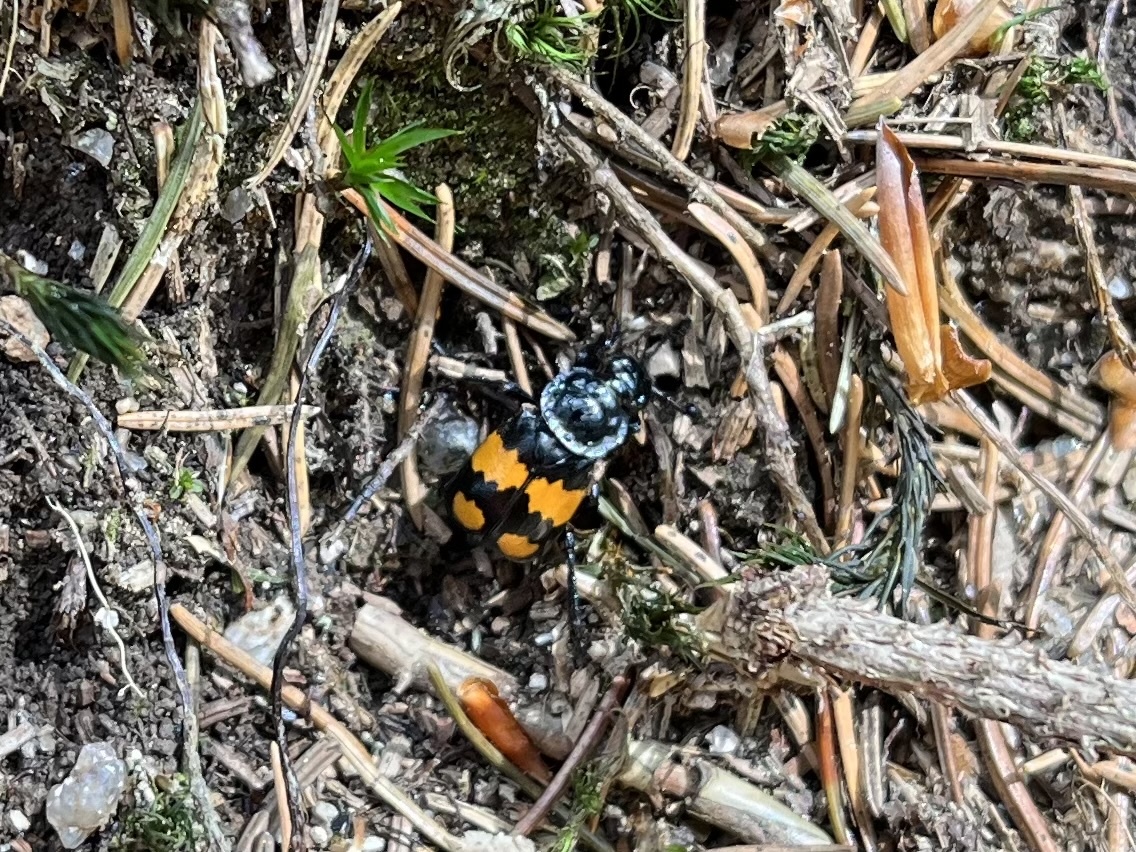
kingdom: Animalia
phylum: Arthropoda
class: Insecta
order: Coleoptera
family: Staphylinidae
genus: Nicrophorus
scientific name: Nicrophorus vespilloides
